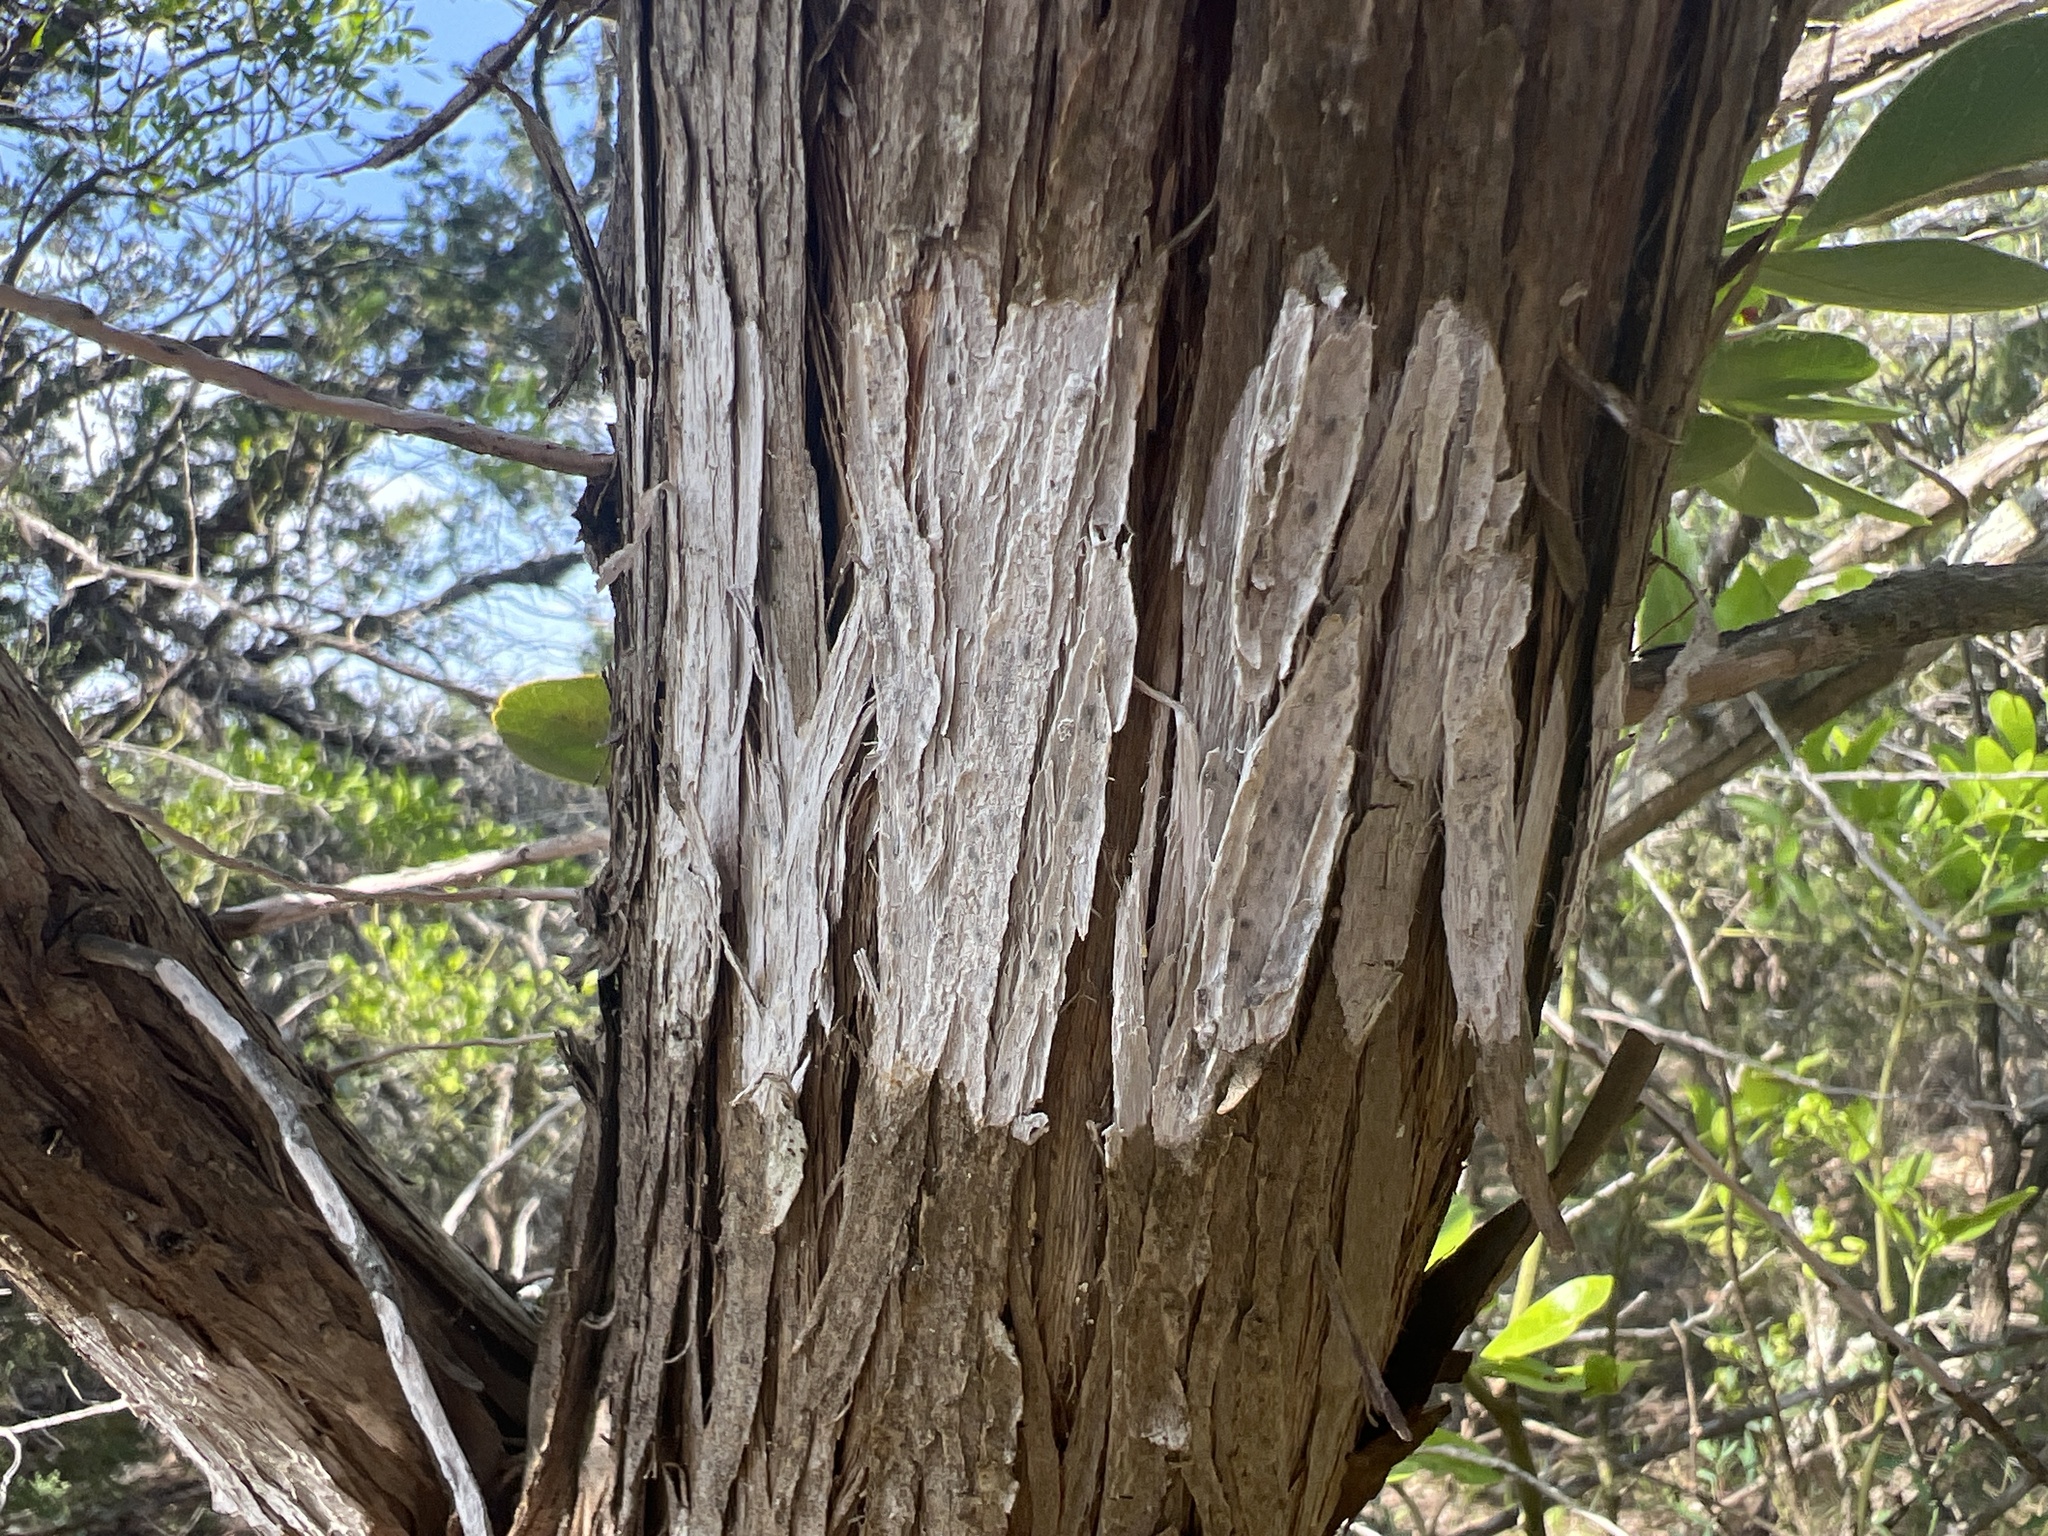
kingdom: Fungi
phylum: Ascomycota
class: Lecanoromycetes
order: Ostropales
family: Stictidaceae
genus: Robergea
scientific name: Robergea
